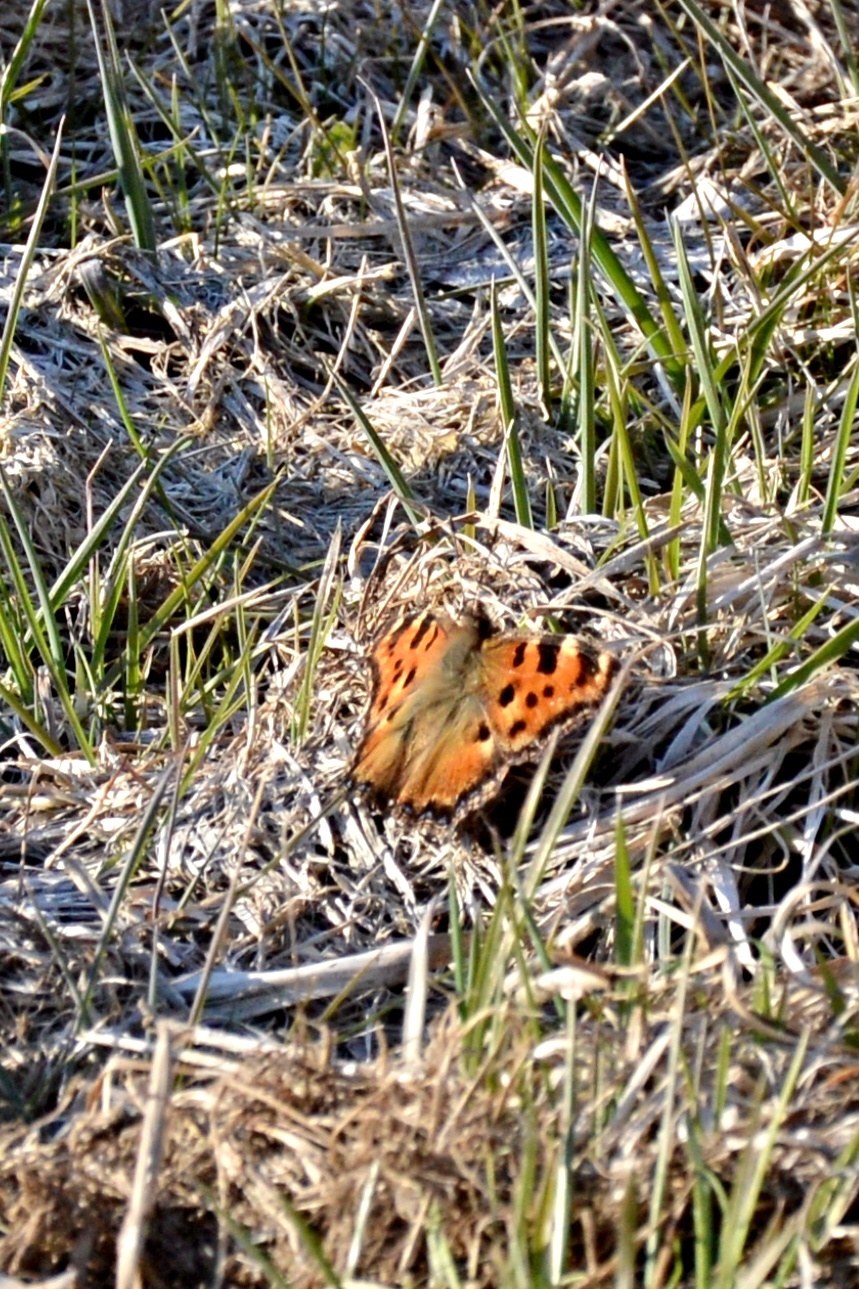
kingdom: Animalia
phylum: Arthropoda
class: Insecta
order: Lepidoptera
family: Nymphalidae
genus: Nymphalis
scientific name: Nymphalis polychloros
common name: Large tortoiseshell
